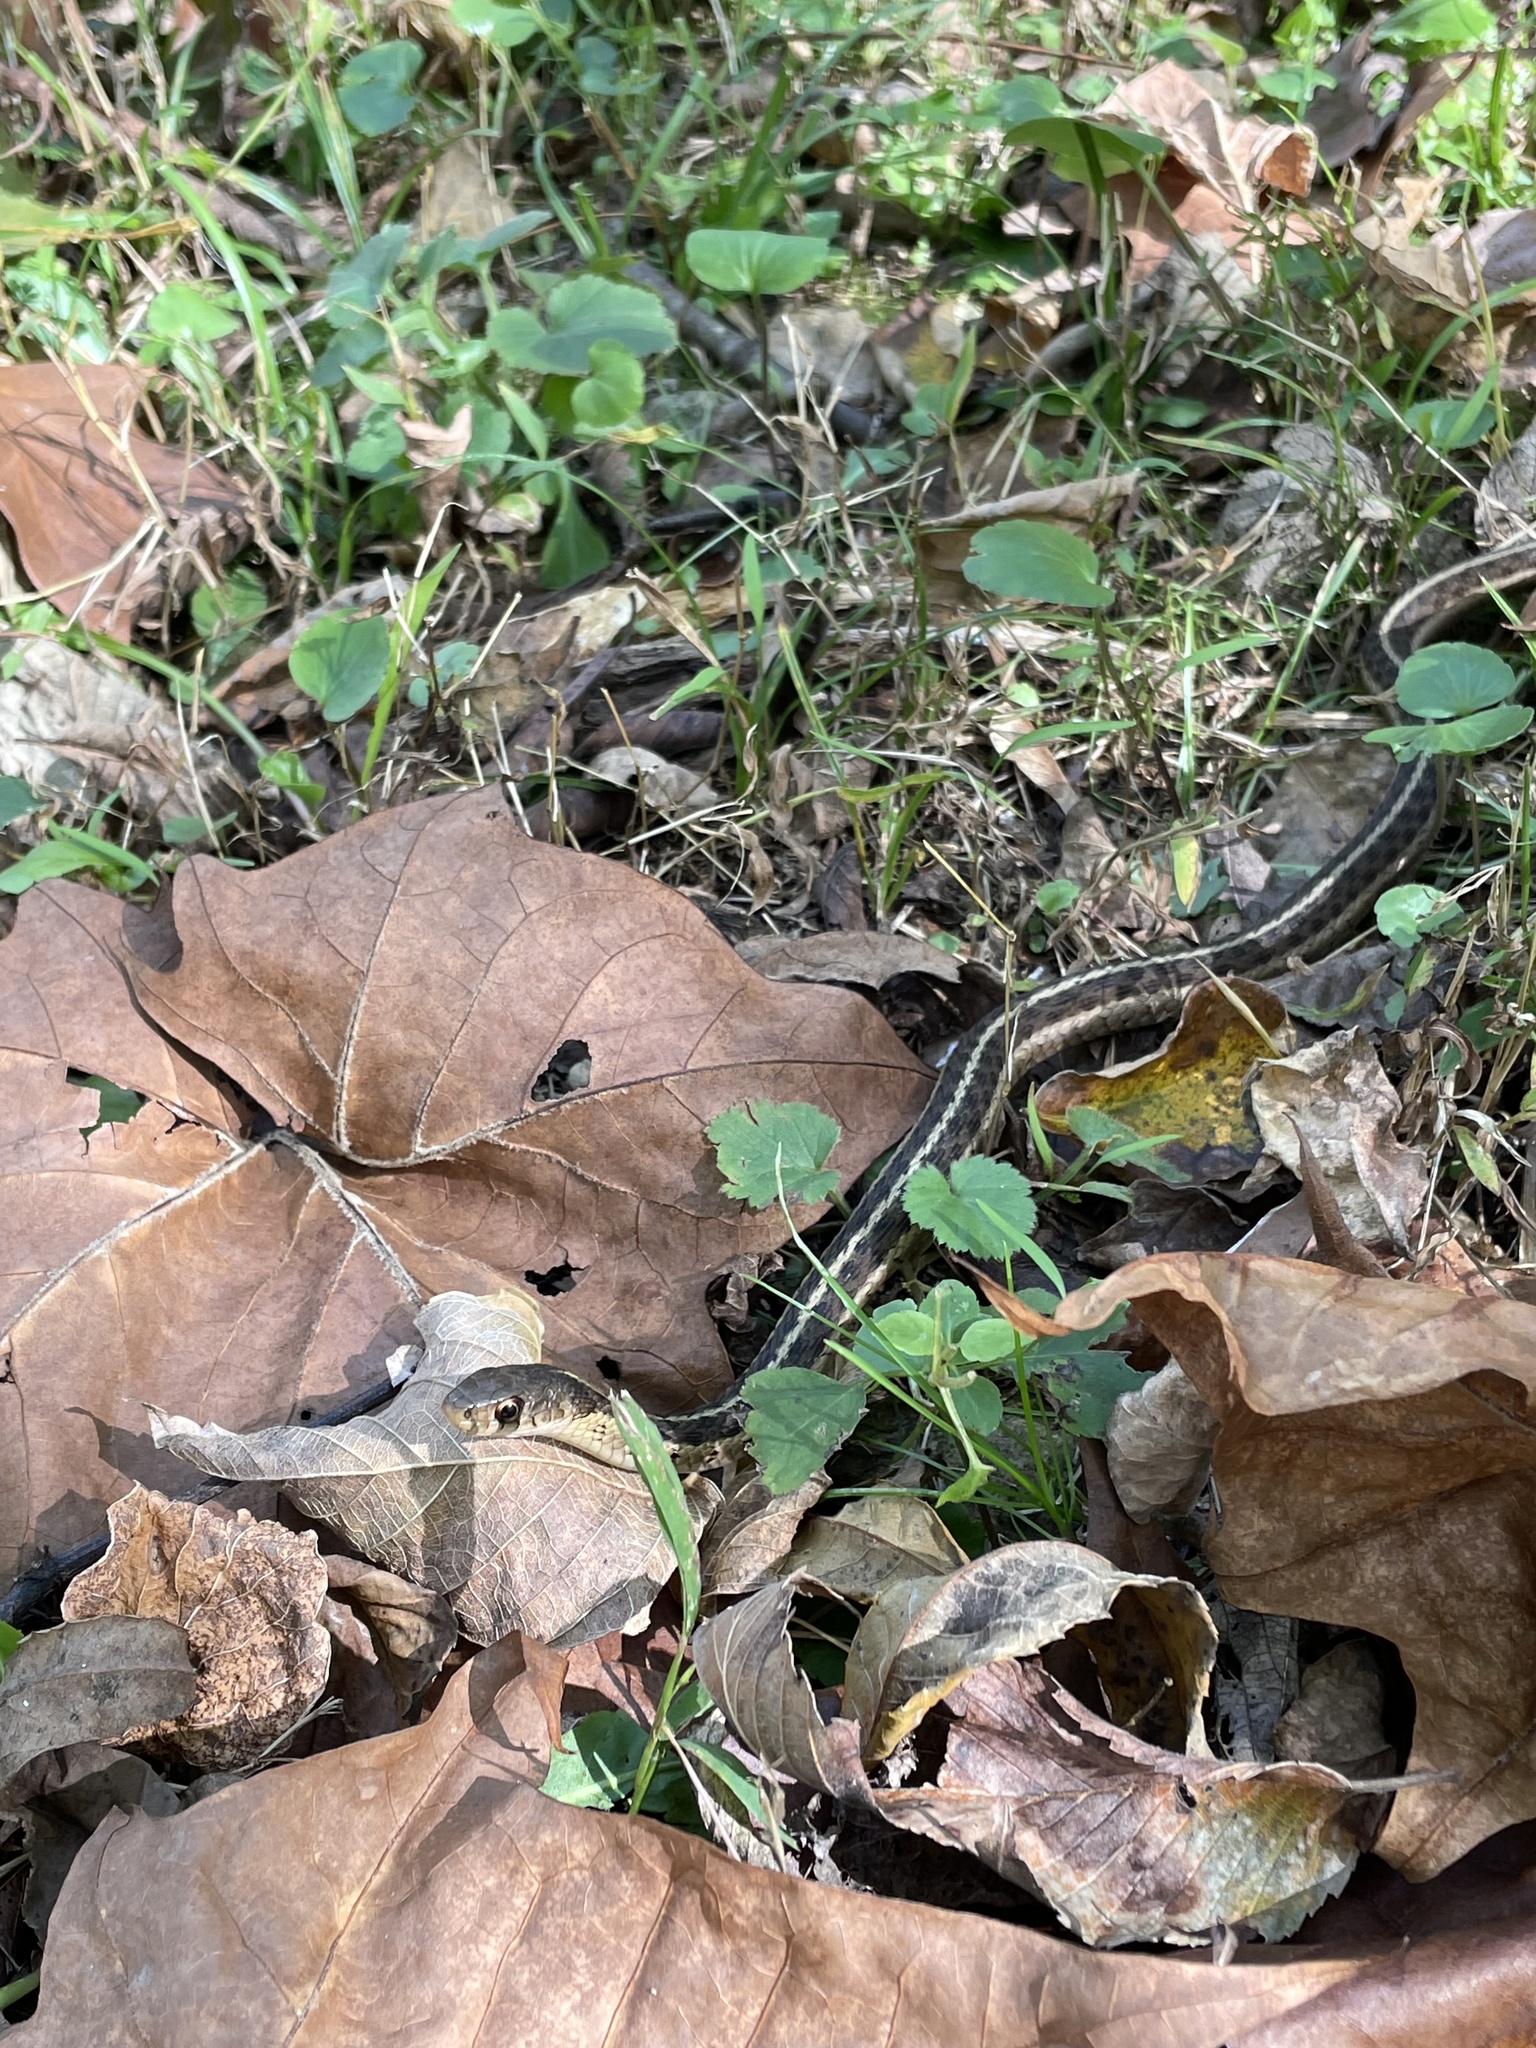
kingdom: Animalia
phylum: Chordata
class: Squamata
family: Colubridae
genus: Thamnophis
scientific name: Thamnophis sirtalis
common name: Common garter snake
